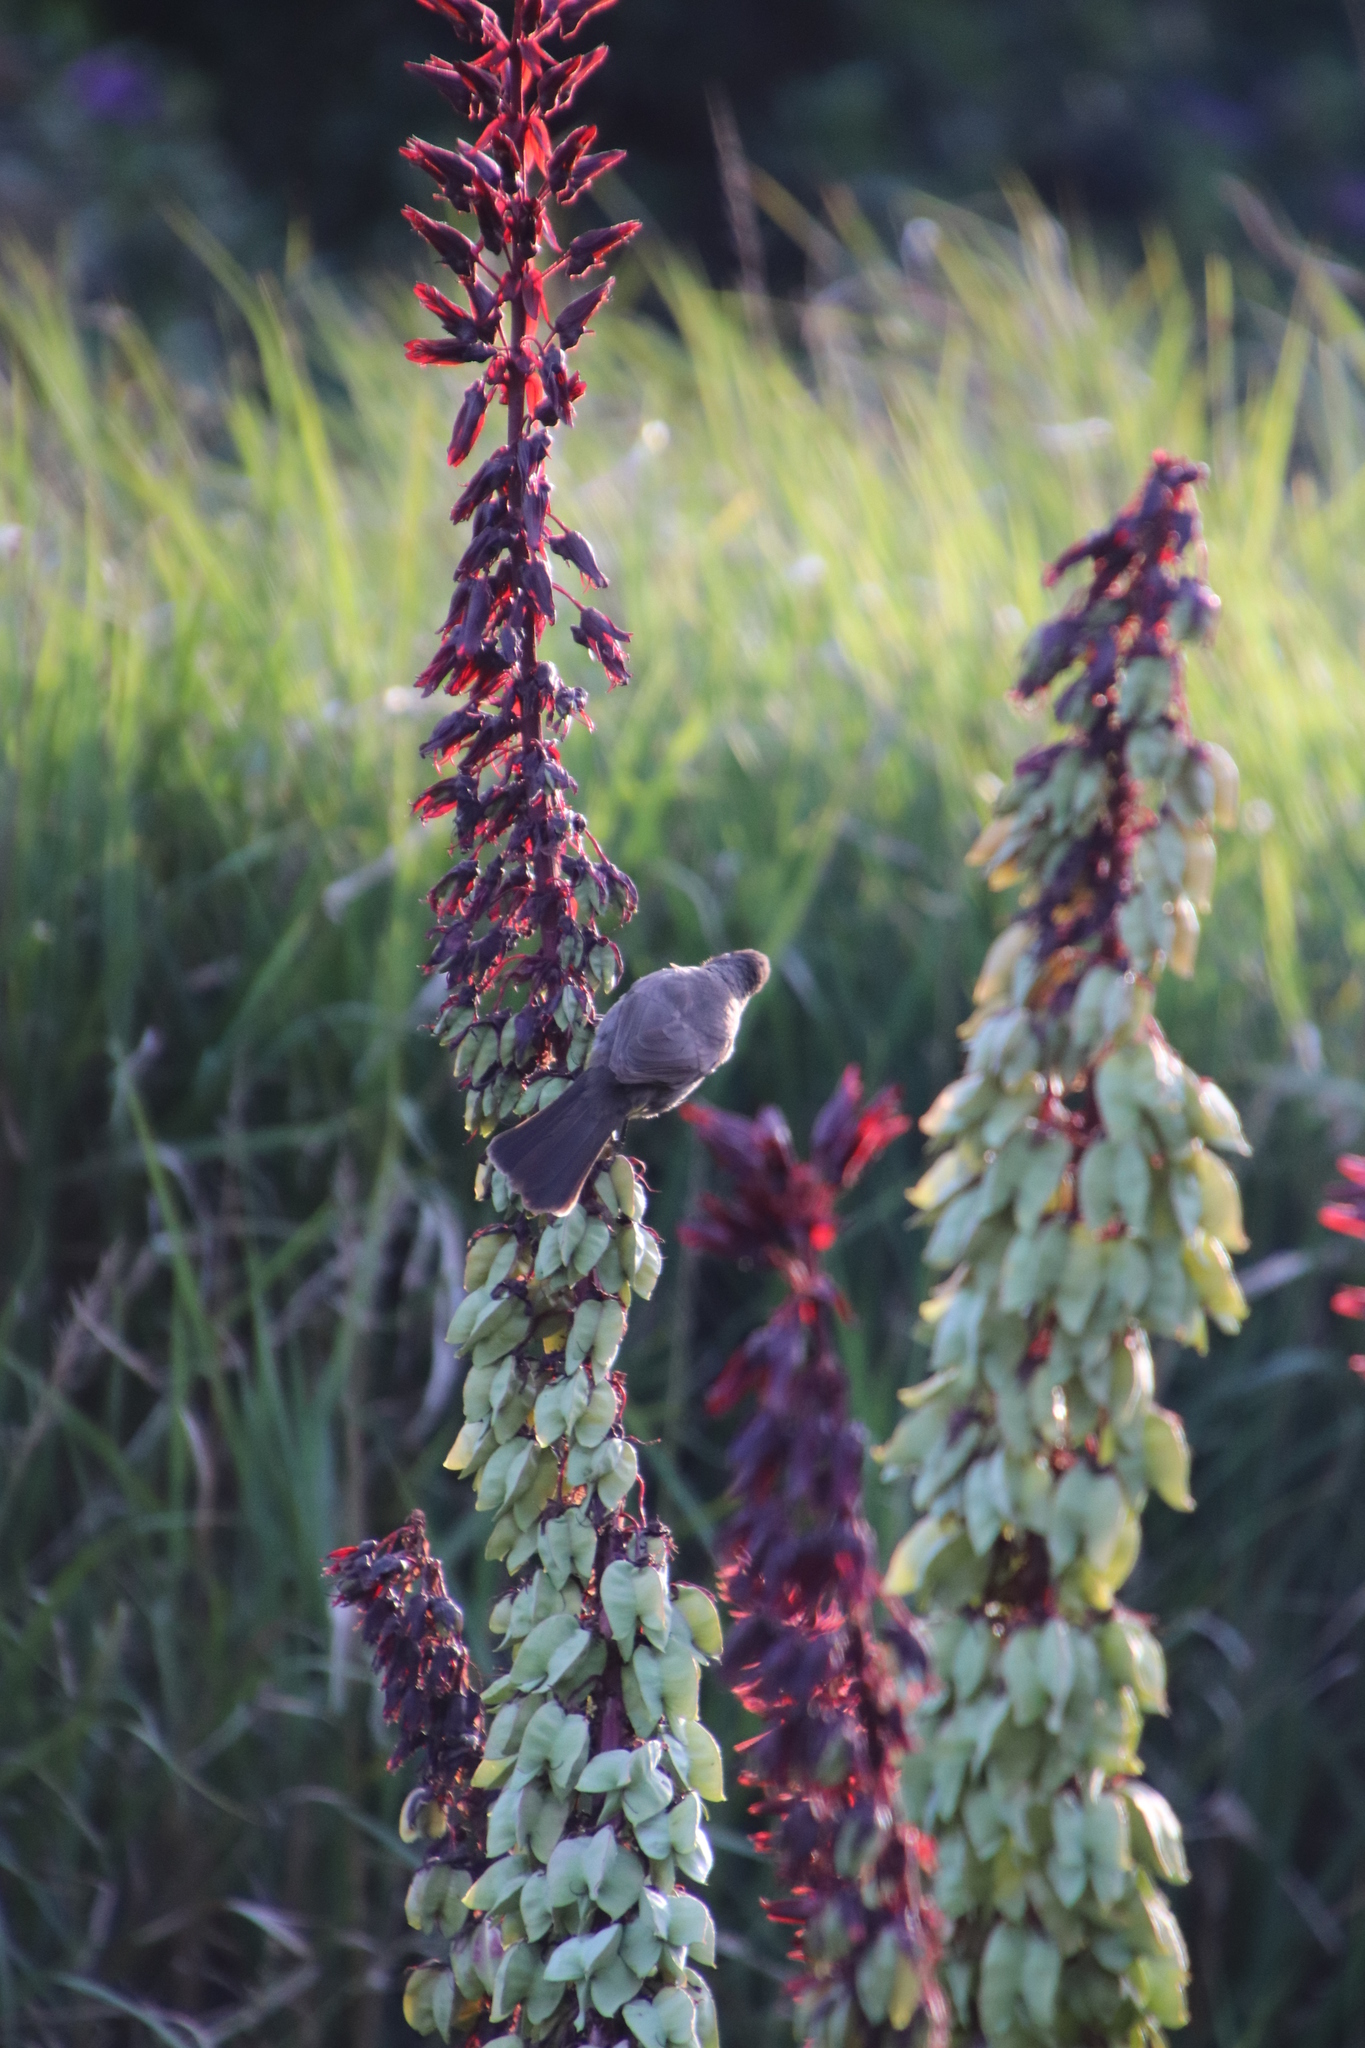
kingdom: Animalia
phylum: Chordata
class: Aves
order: Passeriformes
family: Pycnonotidae
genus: Pycnonotus
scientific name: Pycnonotus capensis
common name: Cape bulbul
